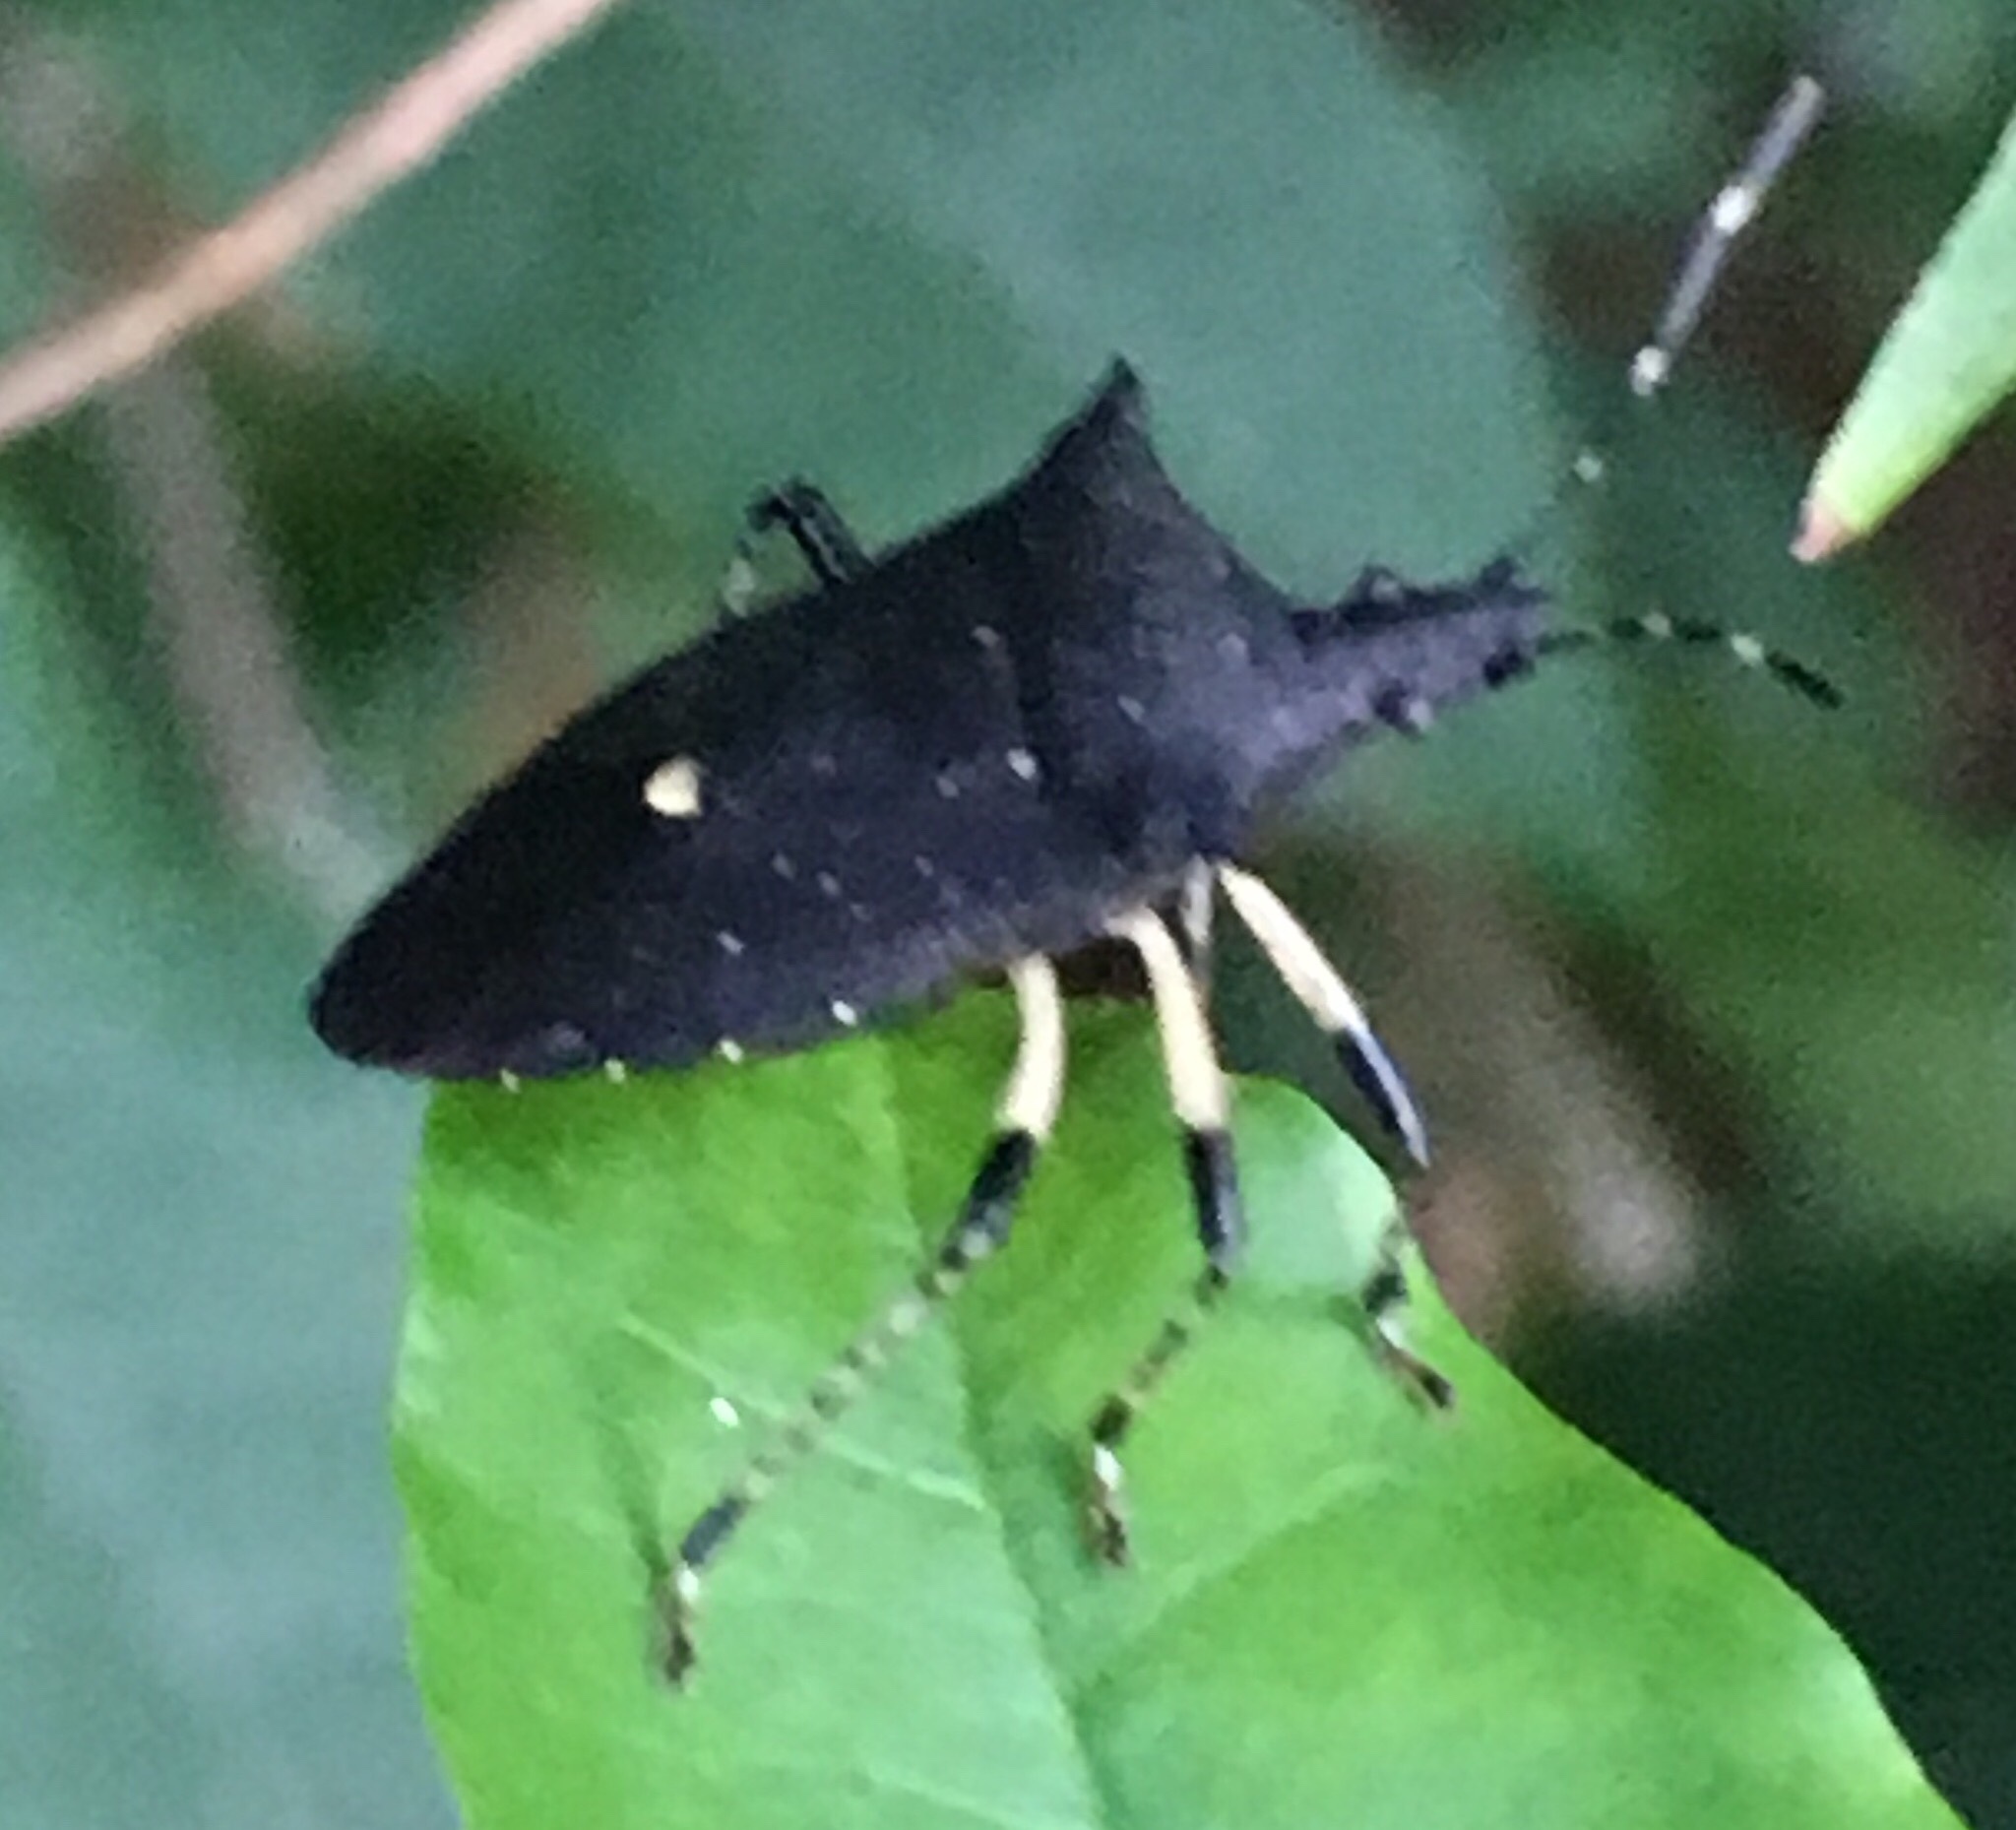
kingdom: Animalia
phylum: Arthropoda
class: Insecta
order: Hemiptera
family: Pentatomidae
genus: Proxys
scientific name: Proxys punctulatus
